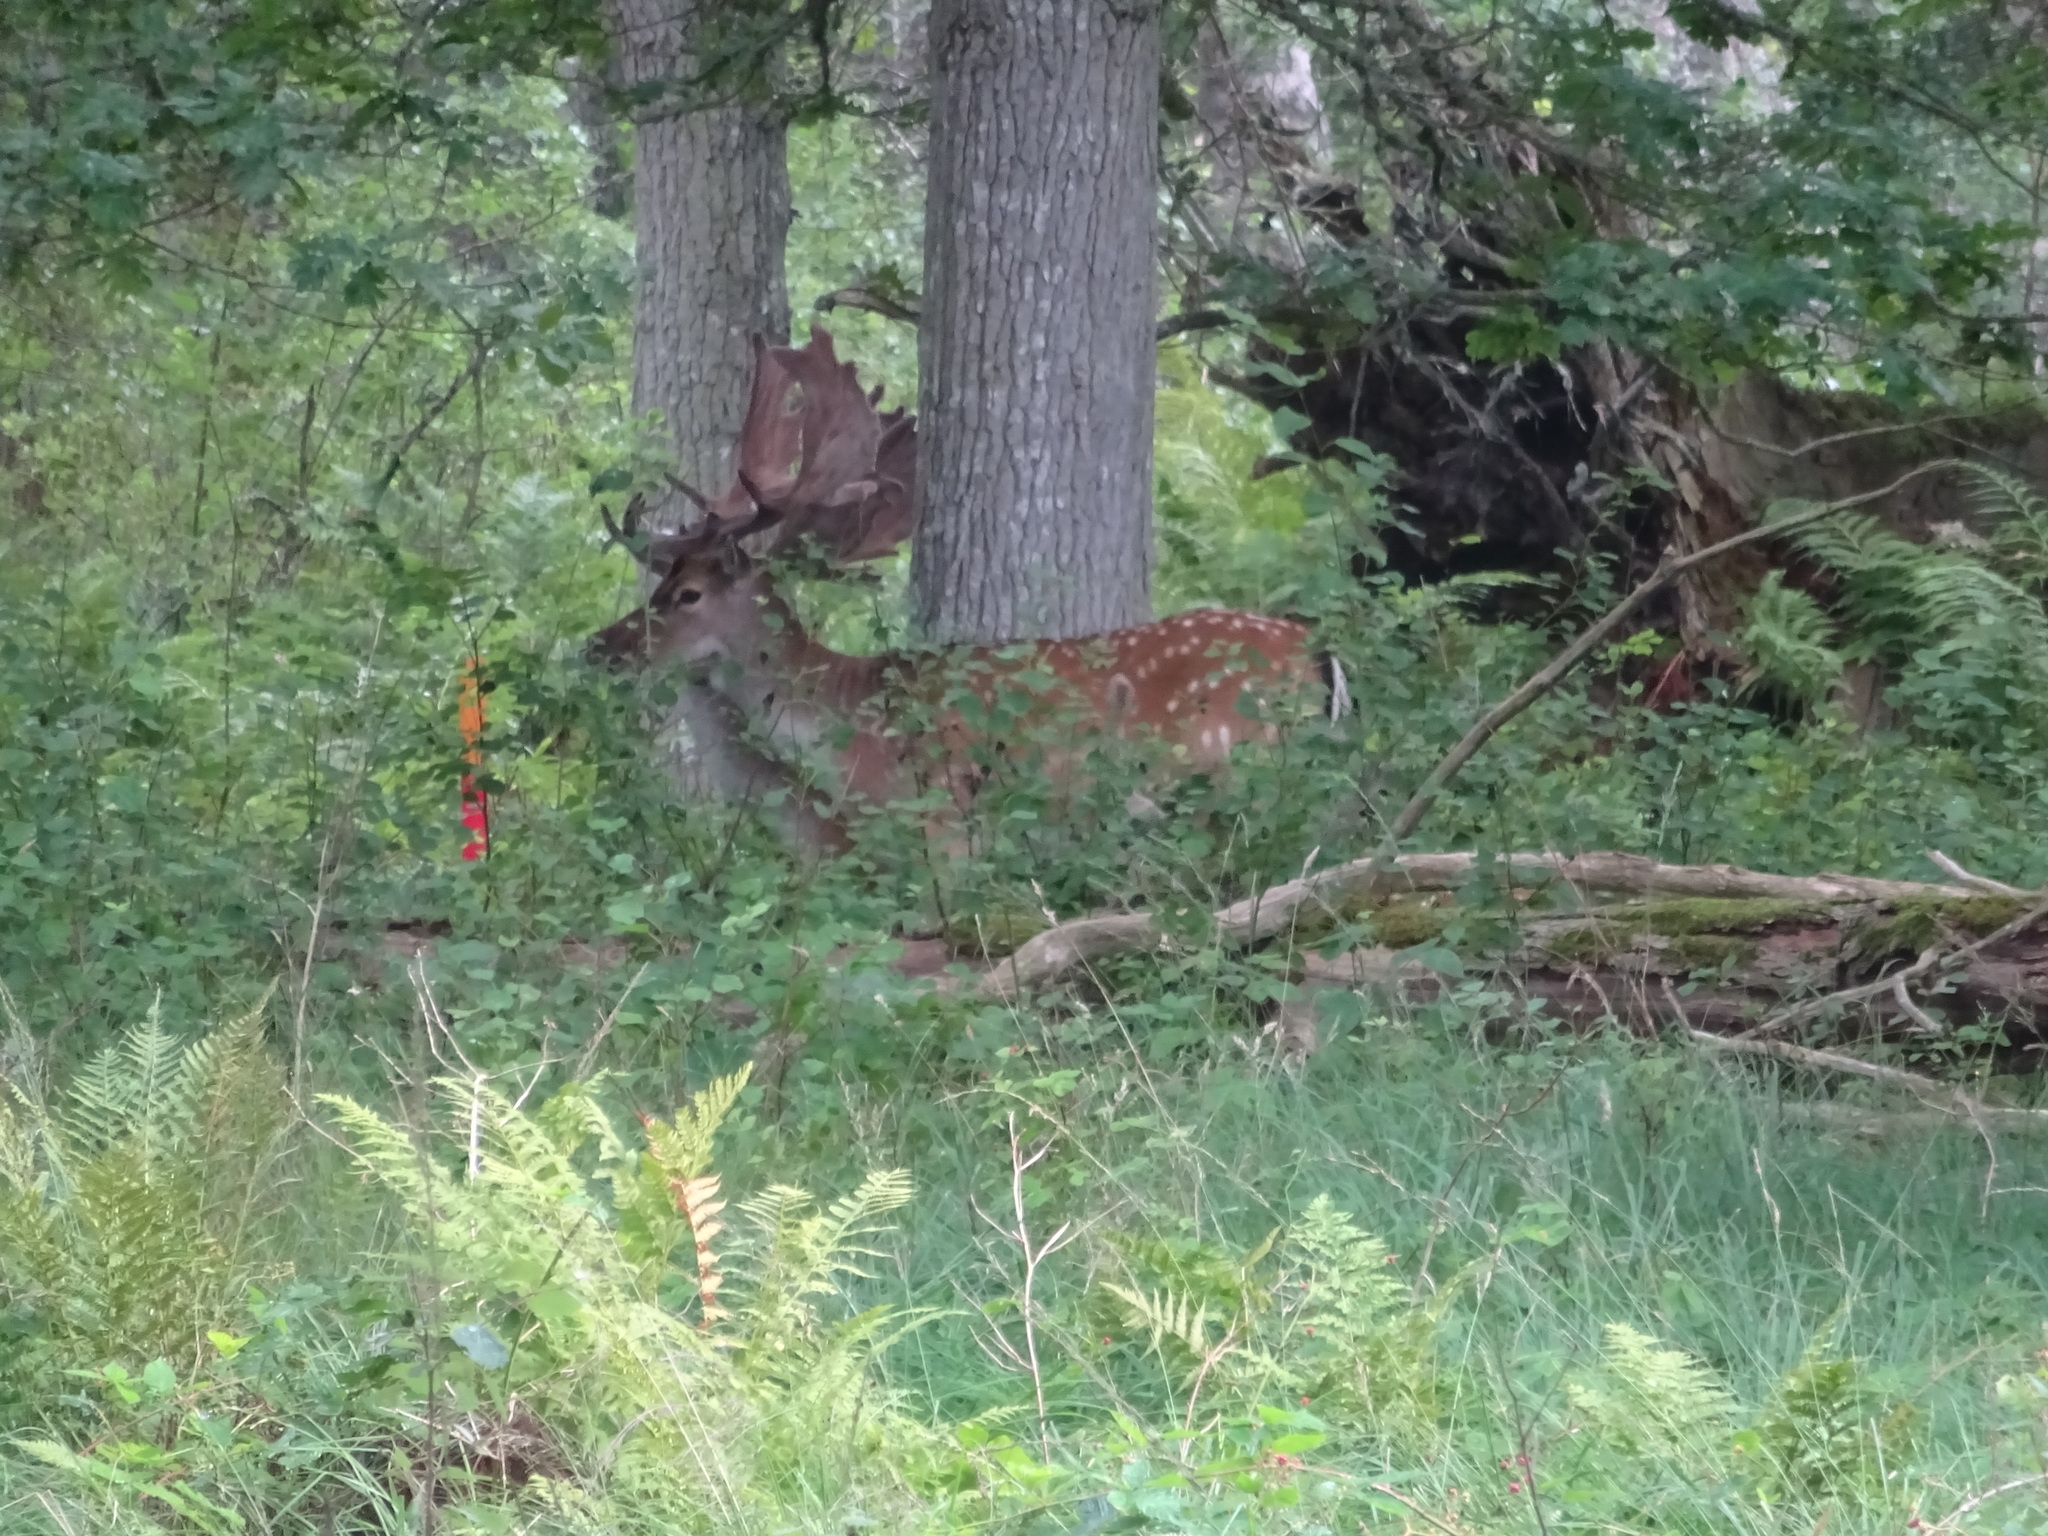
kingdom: Animalia
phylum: Chordata
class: Mammalia
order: Artiodactyla
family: Cervidae
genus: Dama
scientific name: Dama dama
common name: Fallow deer
